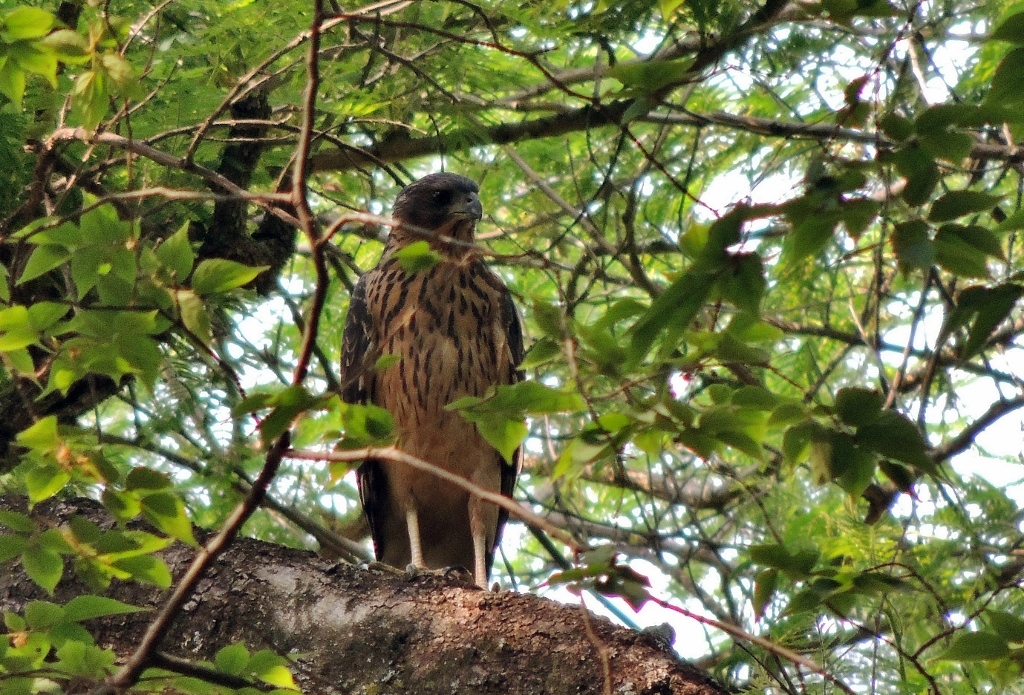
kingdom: Animalia
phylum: Chordata
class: Aves
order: Accipitriformes
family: Accipitridae
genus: Accipiter
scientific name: Accipiter melanoleucus
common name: Black sparrowhawk
